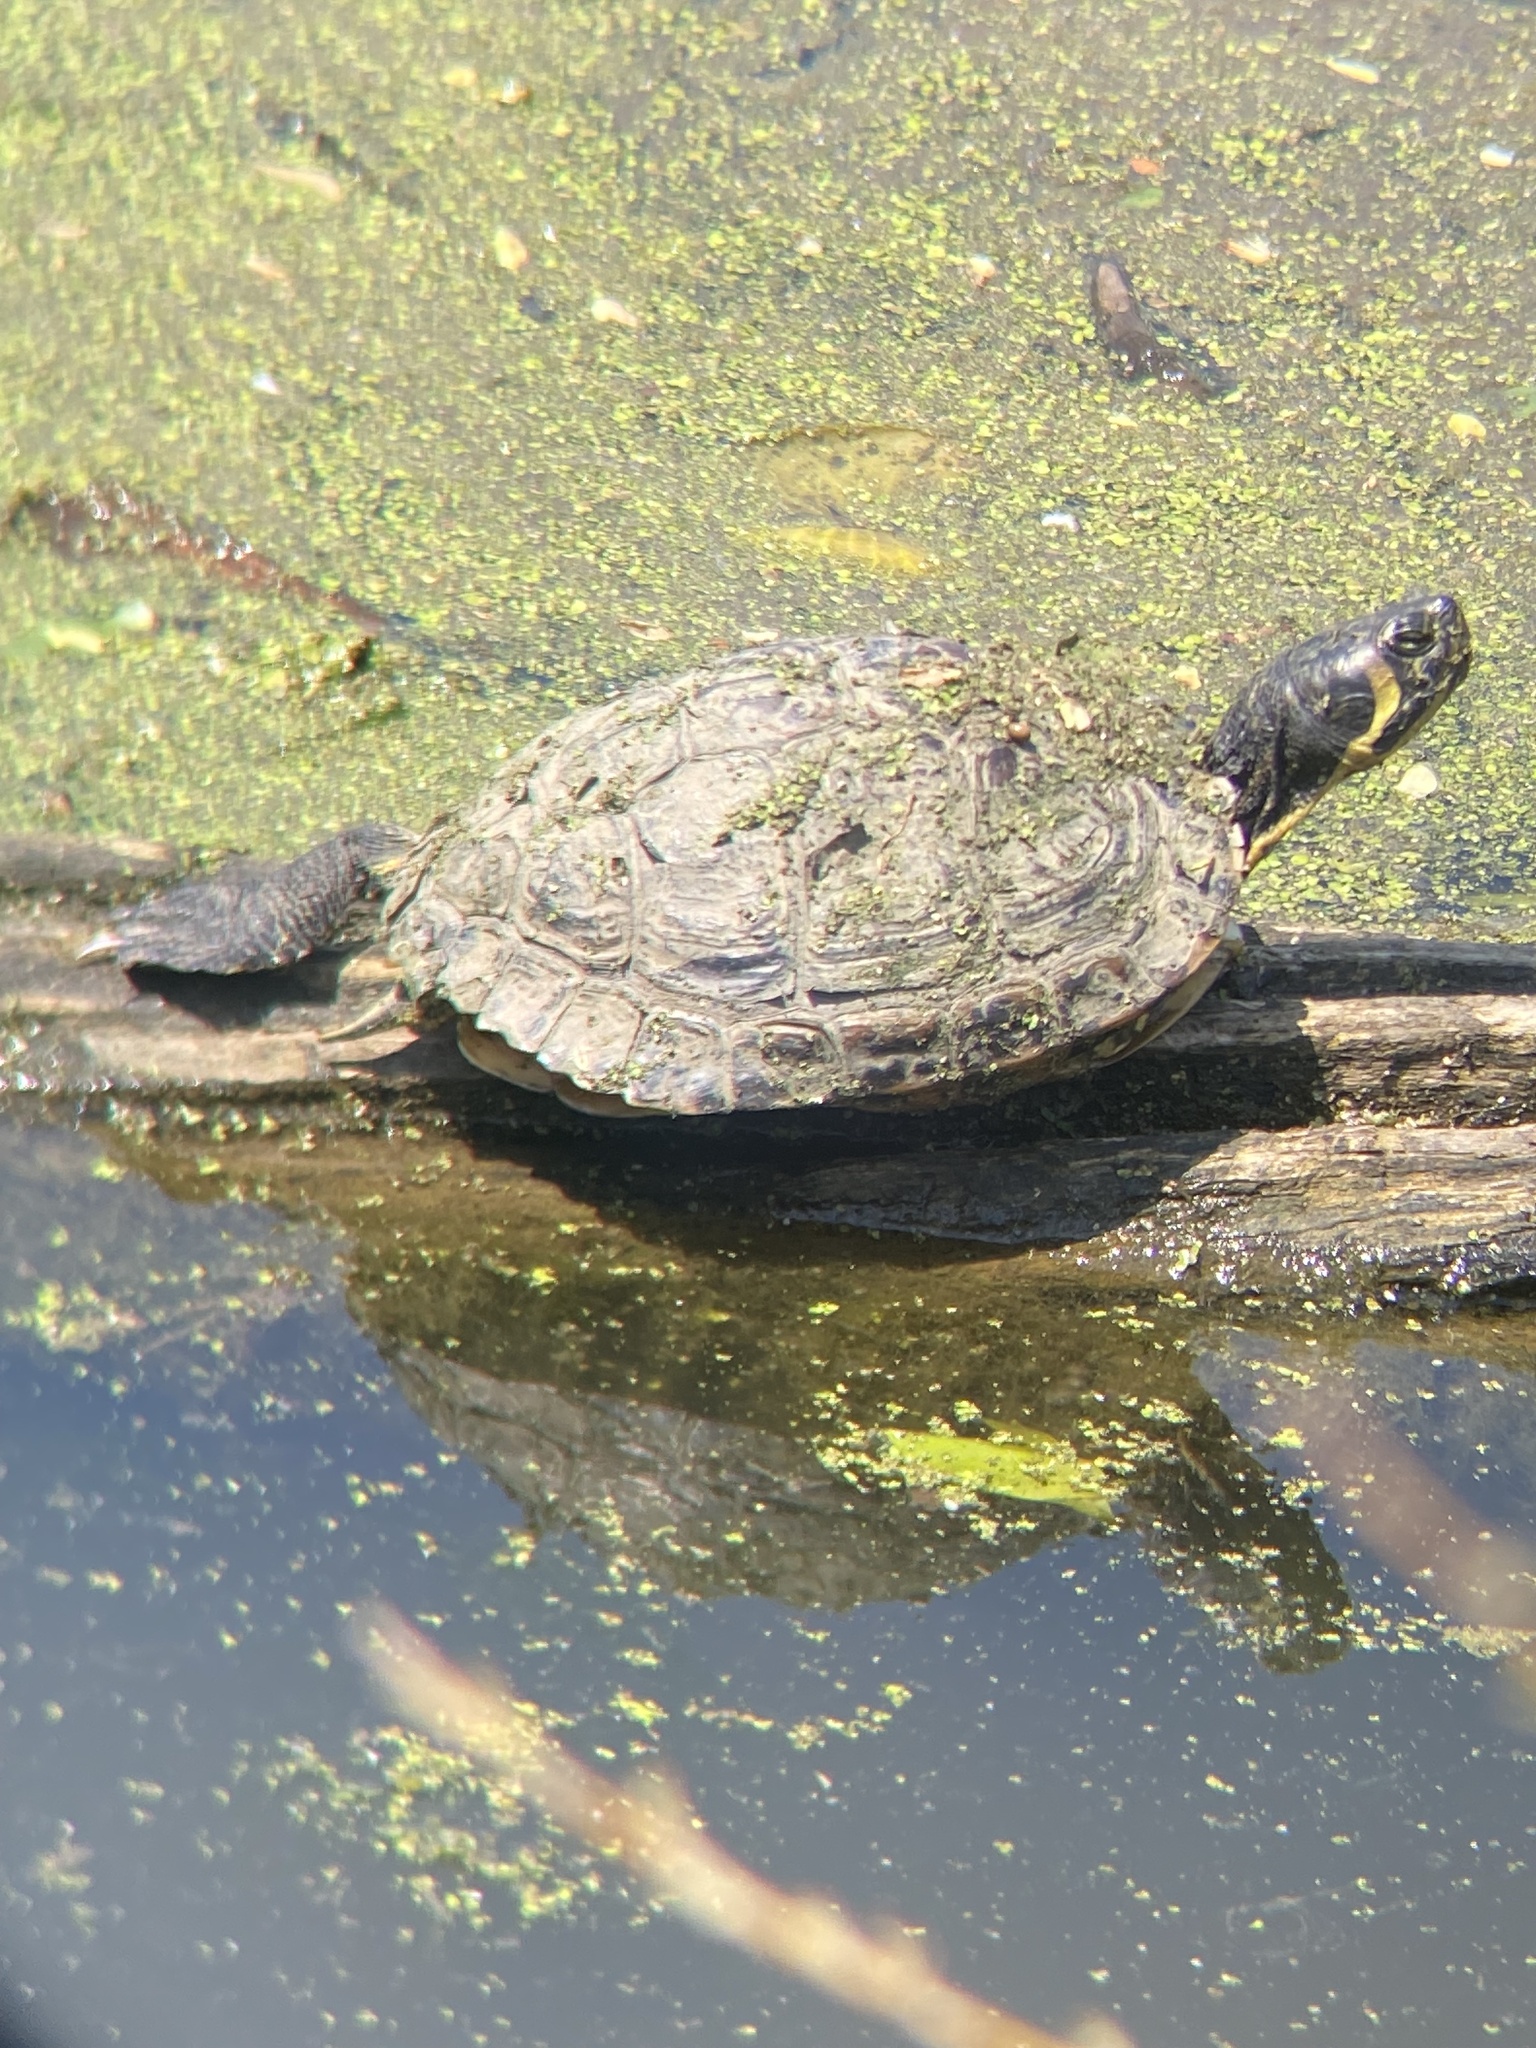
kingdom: Animalia
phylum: Chordata
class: Testudines
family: Emydidae
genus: Trachemys
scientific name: Trachemys scripta
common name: Slider
